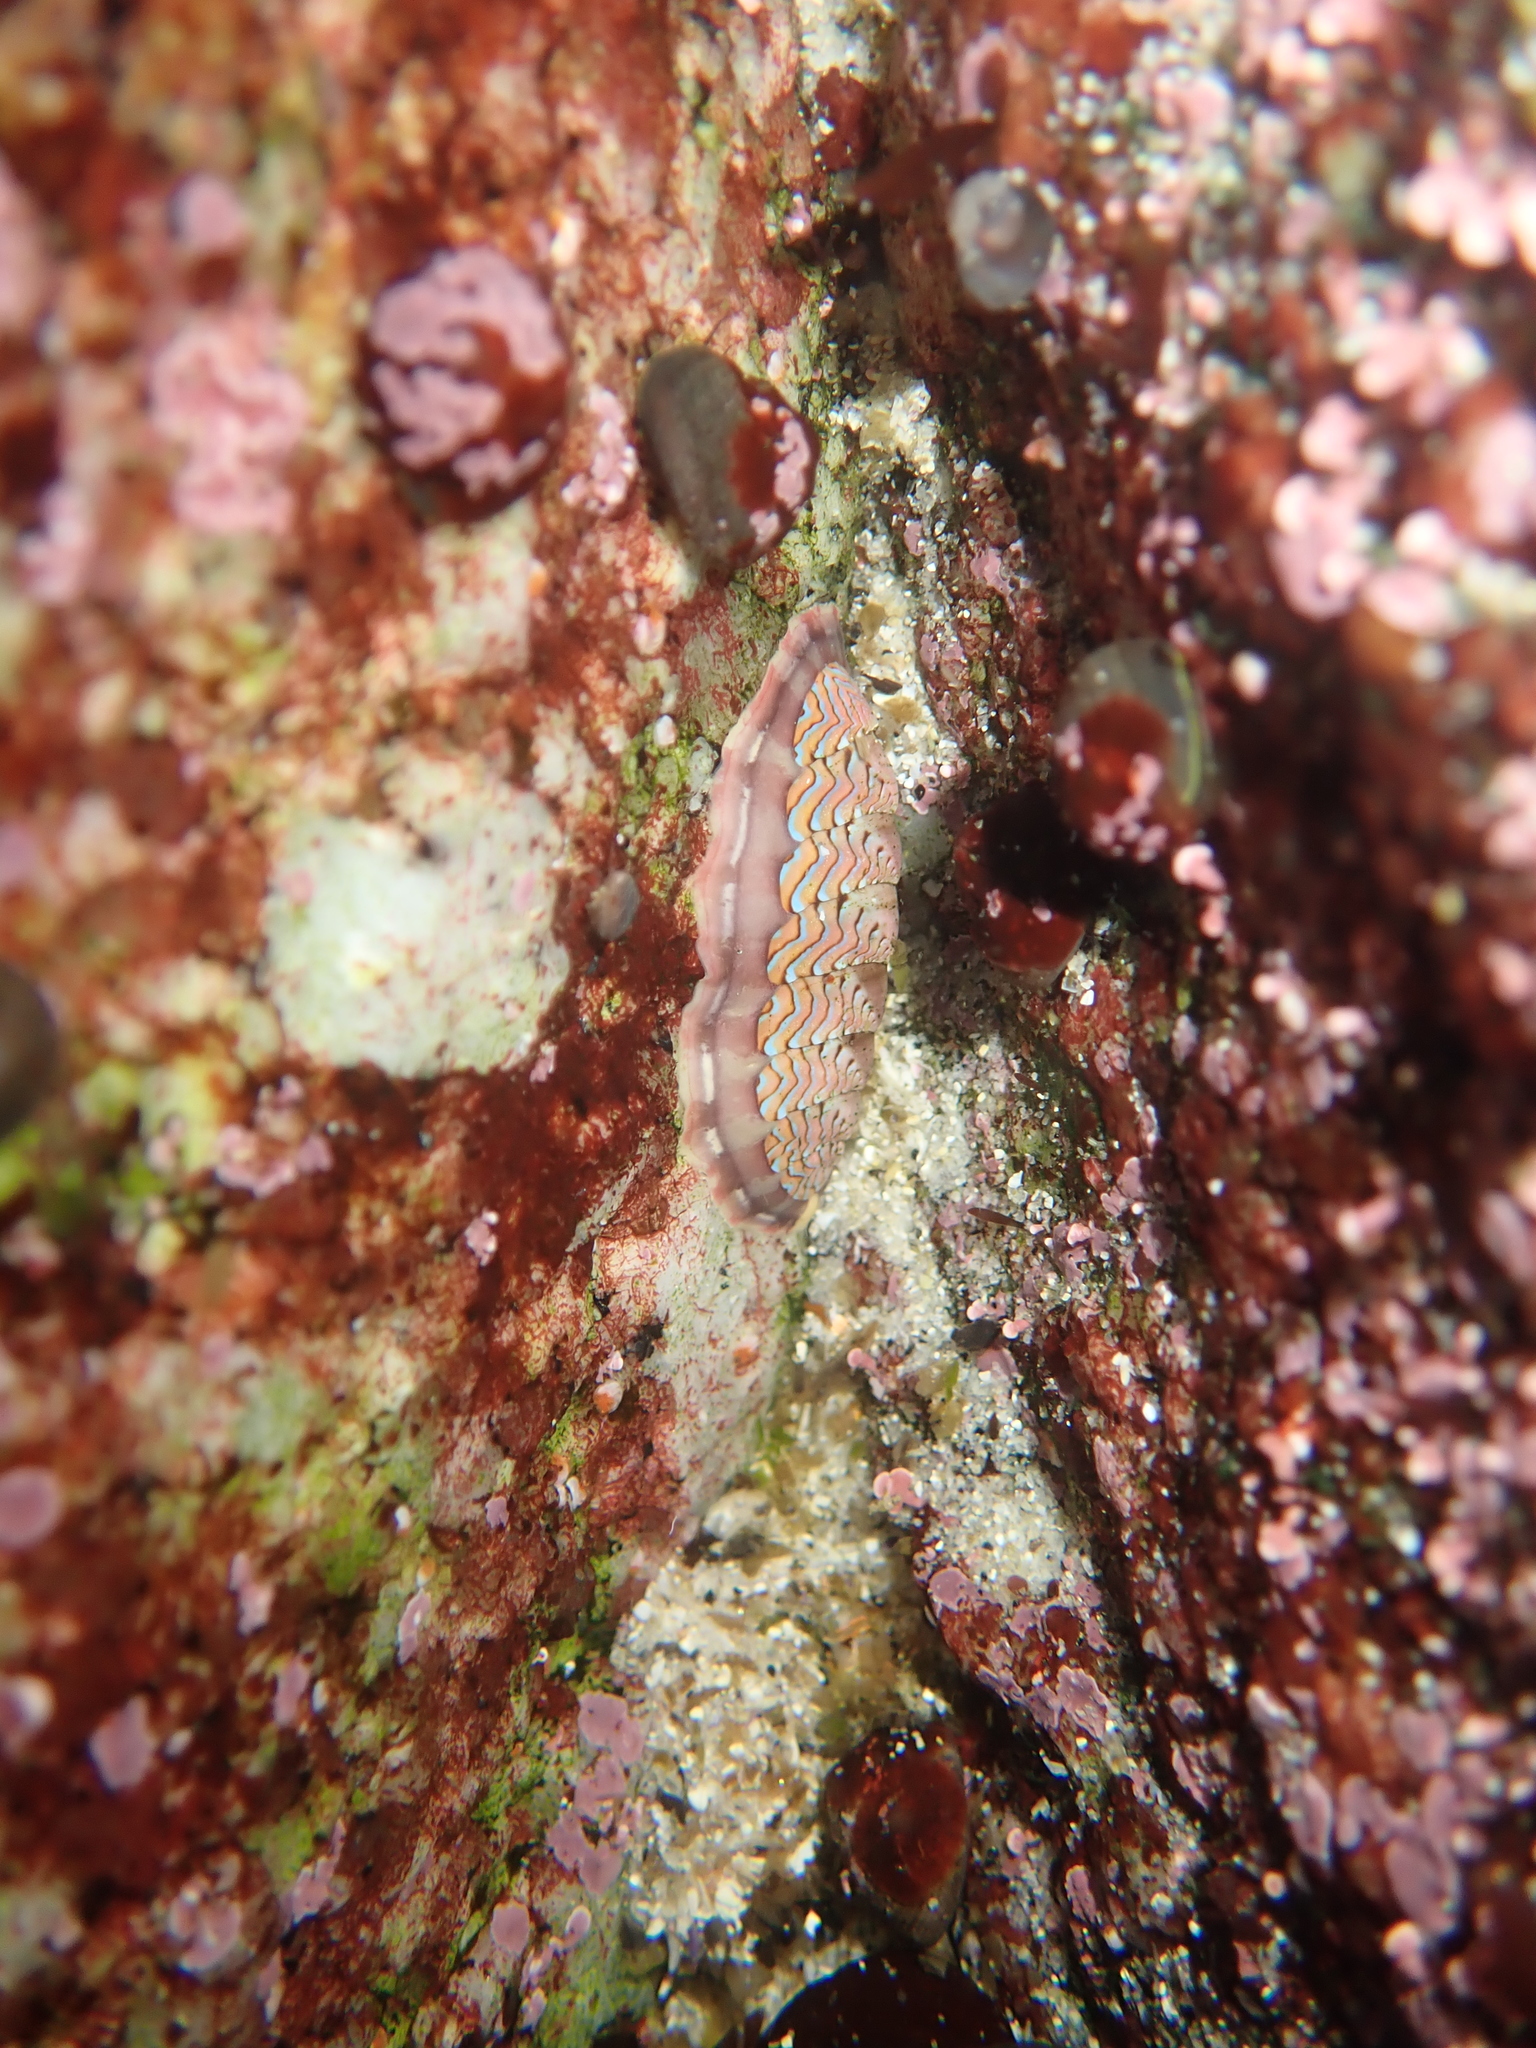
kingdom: Animalia
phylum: Mollusca
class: Polyplacophora
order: Chitonida
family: Tonicellidae
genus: Tonicella
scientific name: Tonicella lokii
